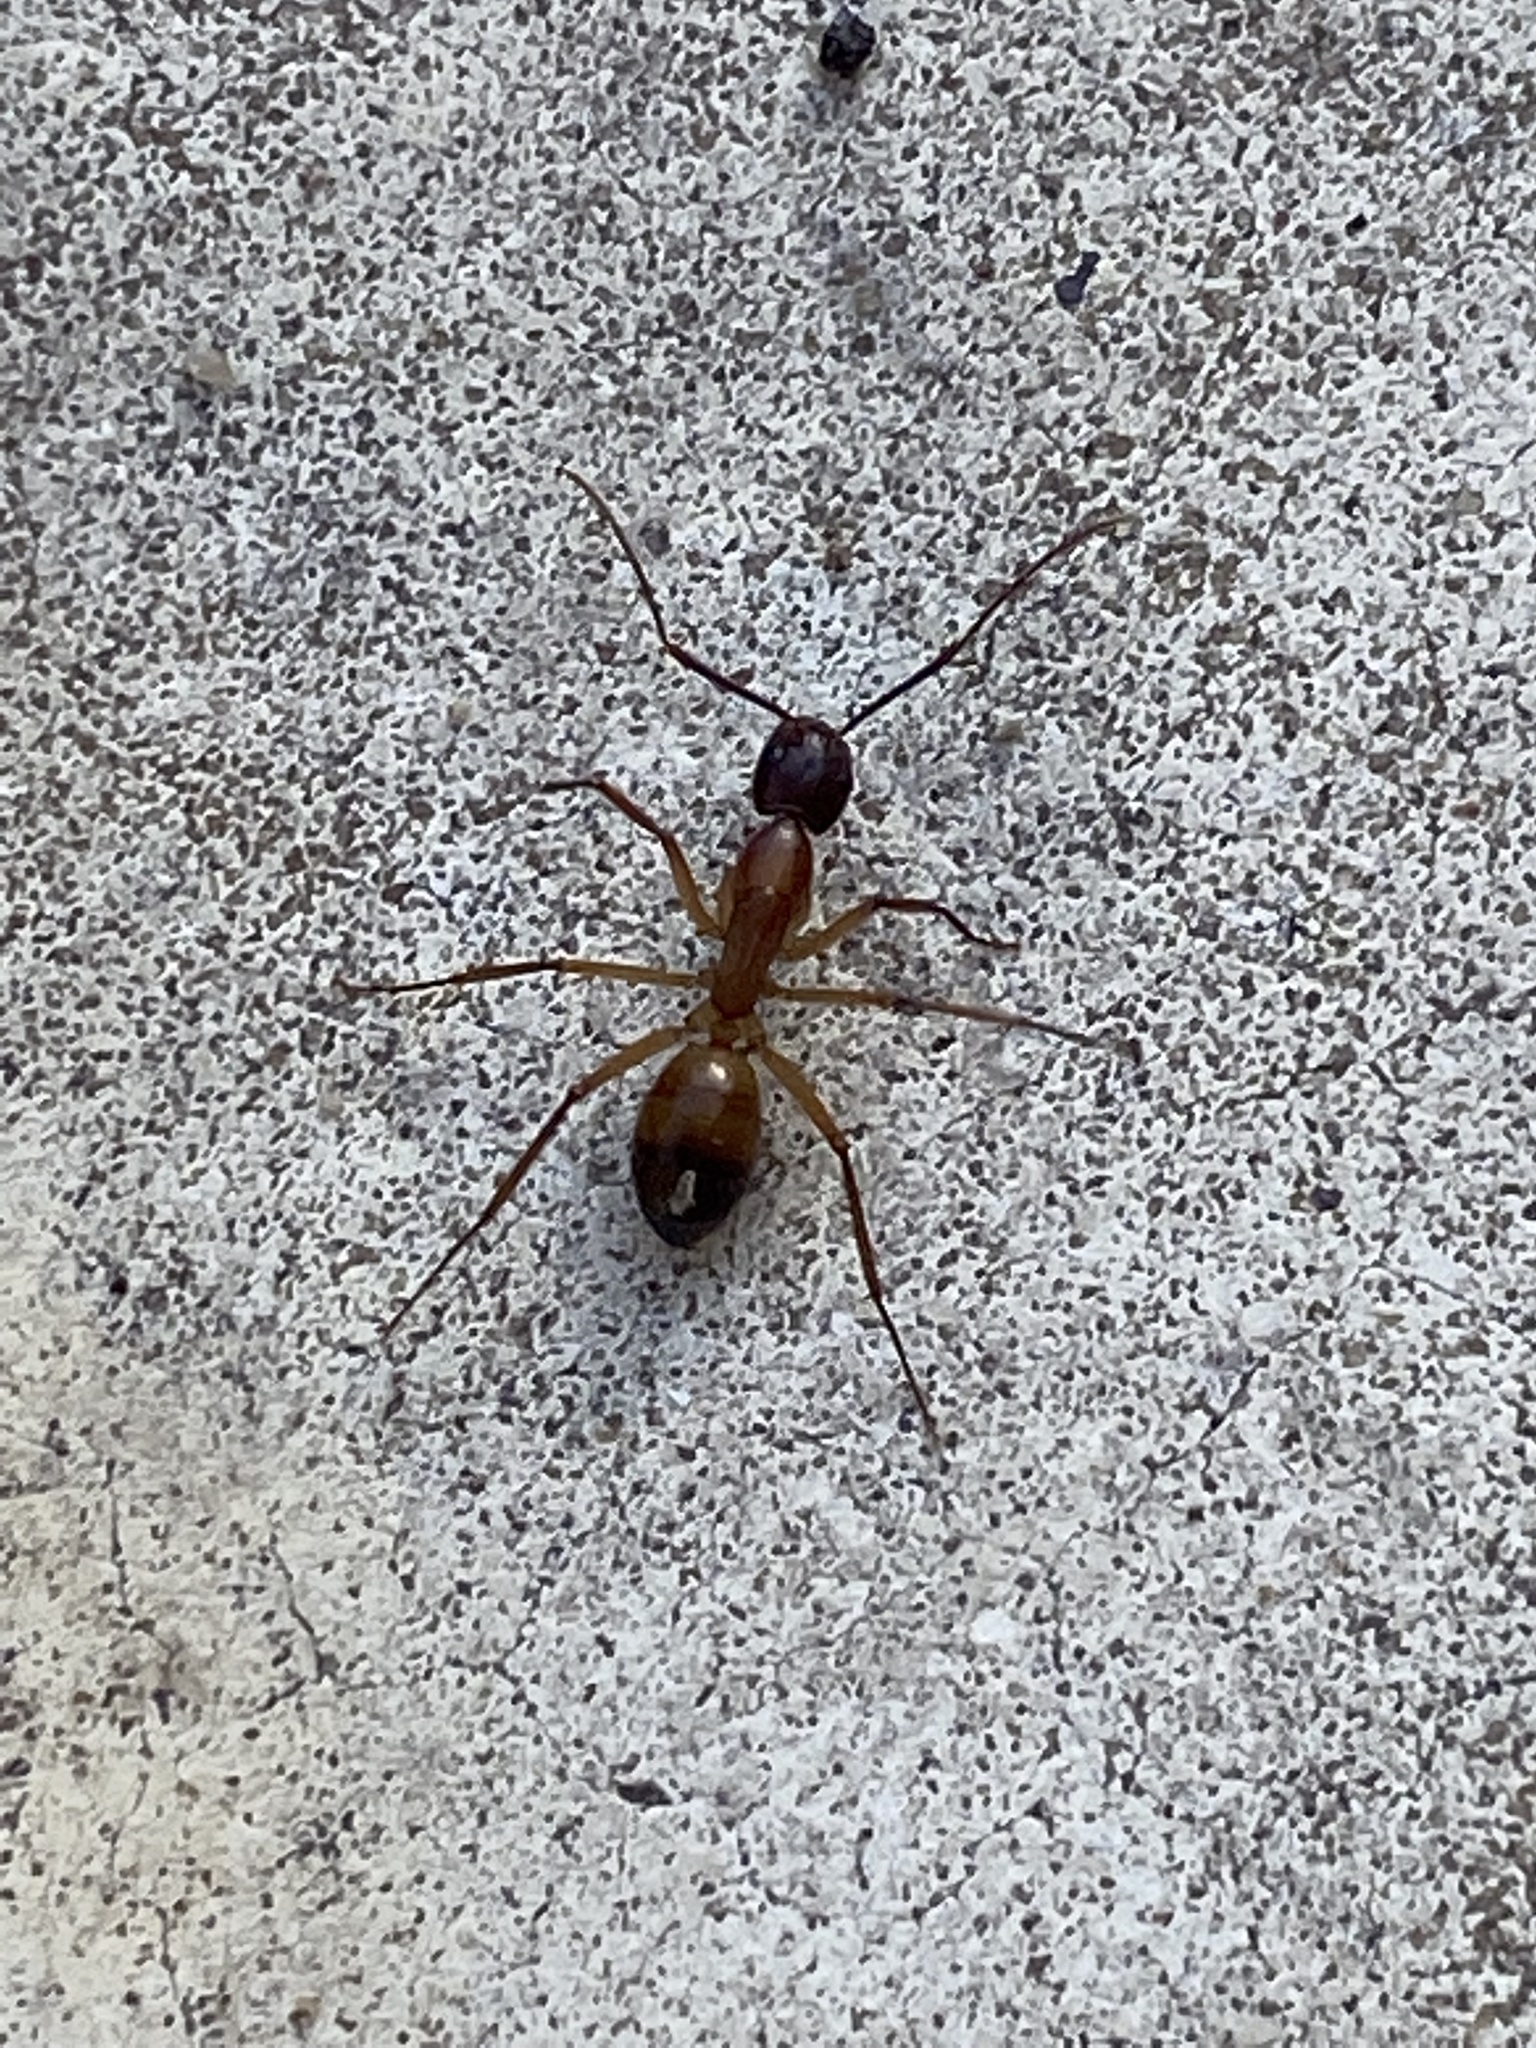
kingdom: Animalia
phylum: Arthropoda
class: Insecta
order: Hymenoptera
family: Formicidae
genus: Camponotus
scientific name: Camponotus maculatus
